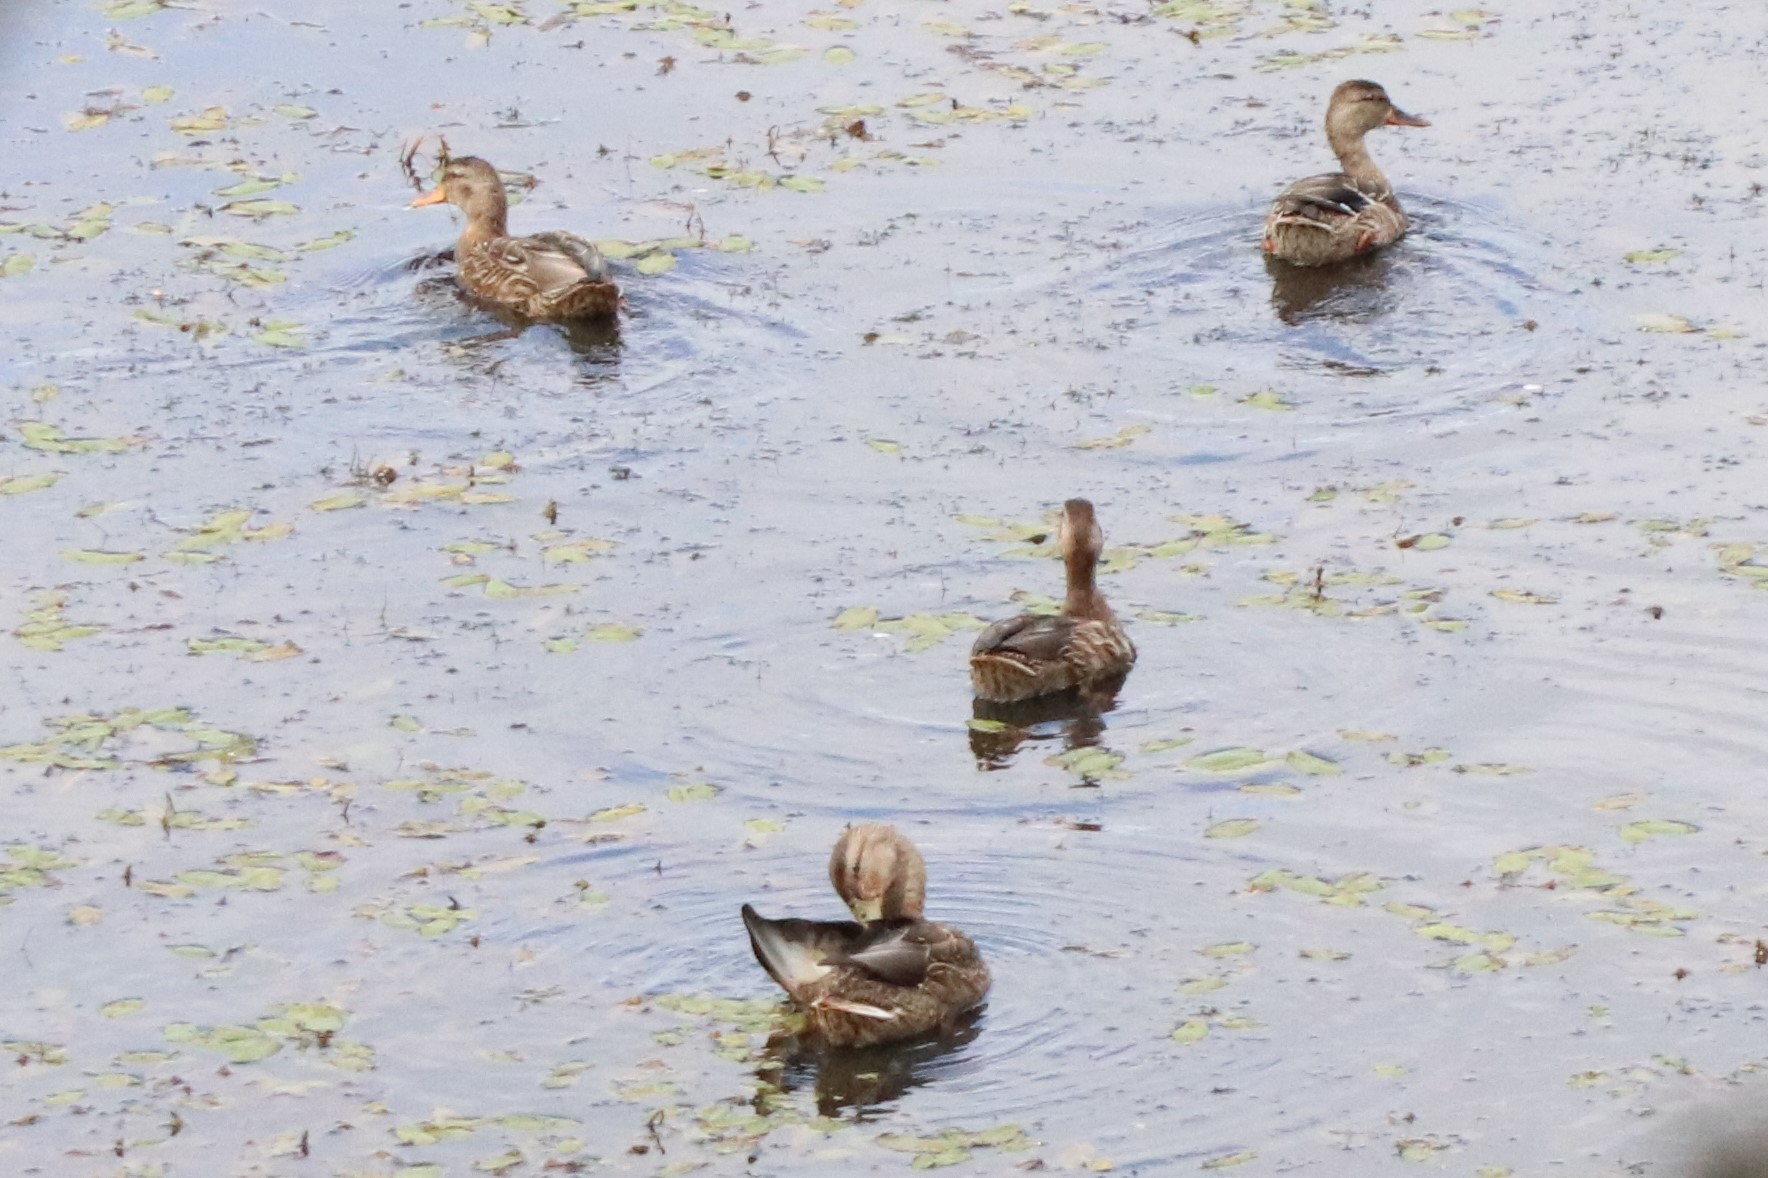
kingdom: Animalia
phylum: Chordata
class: Aves
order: Anseriformes
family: Anatidae
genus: Anas
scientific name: Anas platyrhynchos
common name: Mallard
